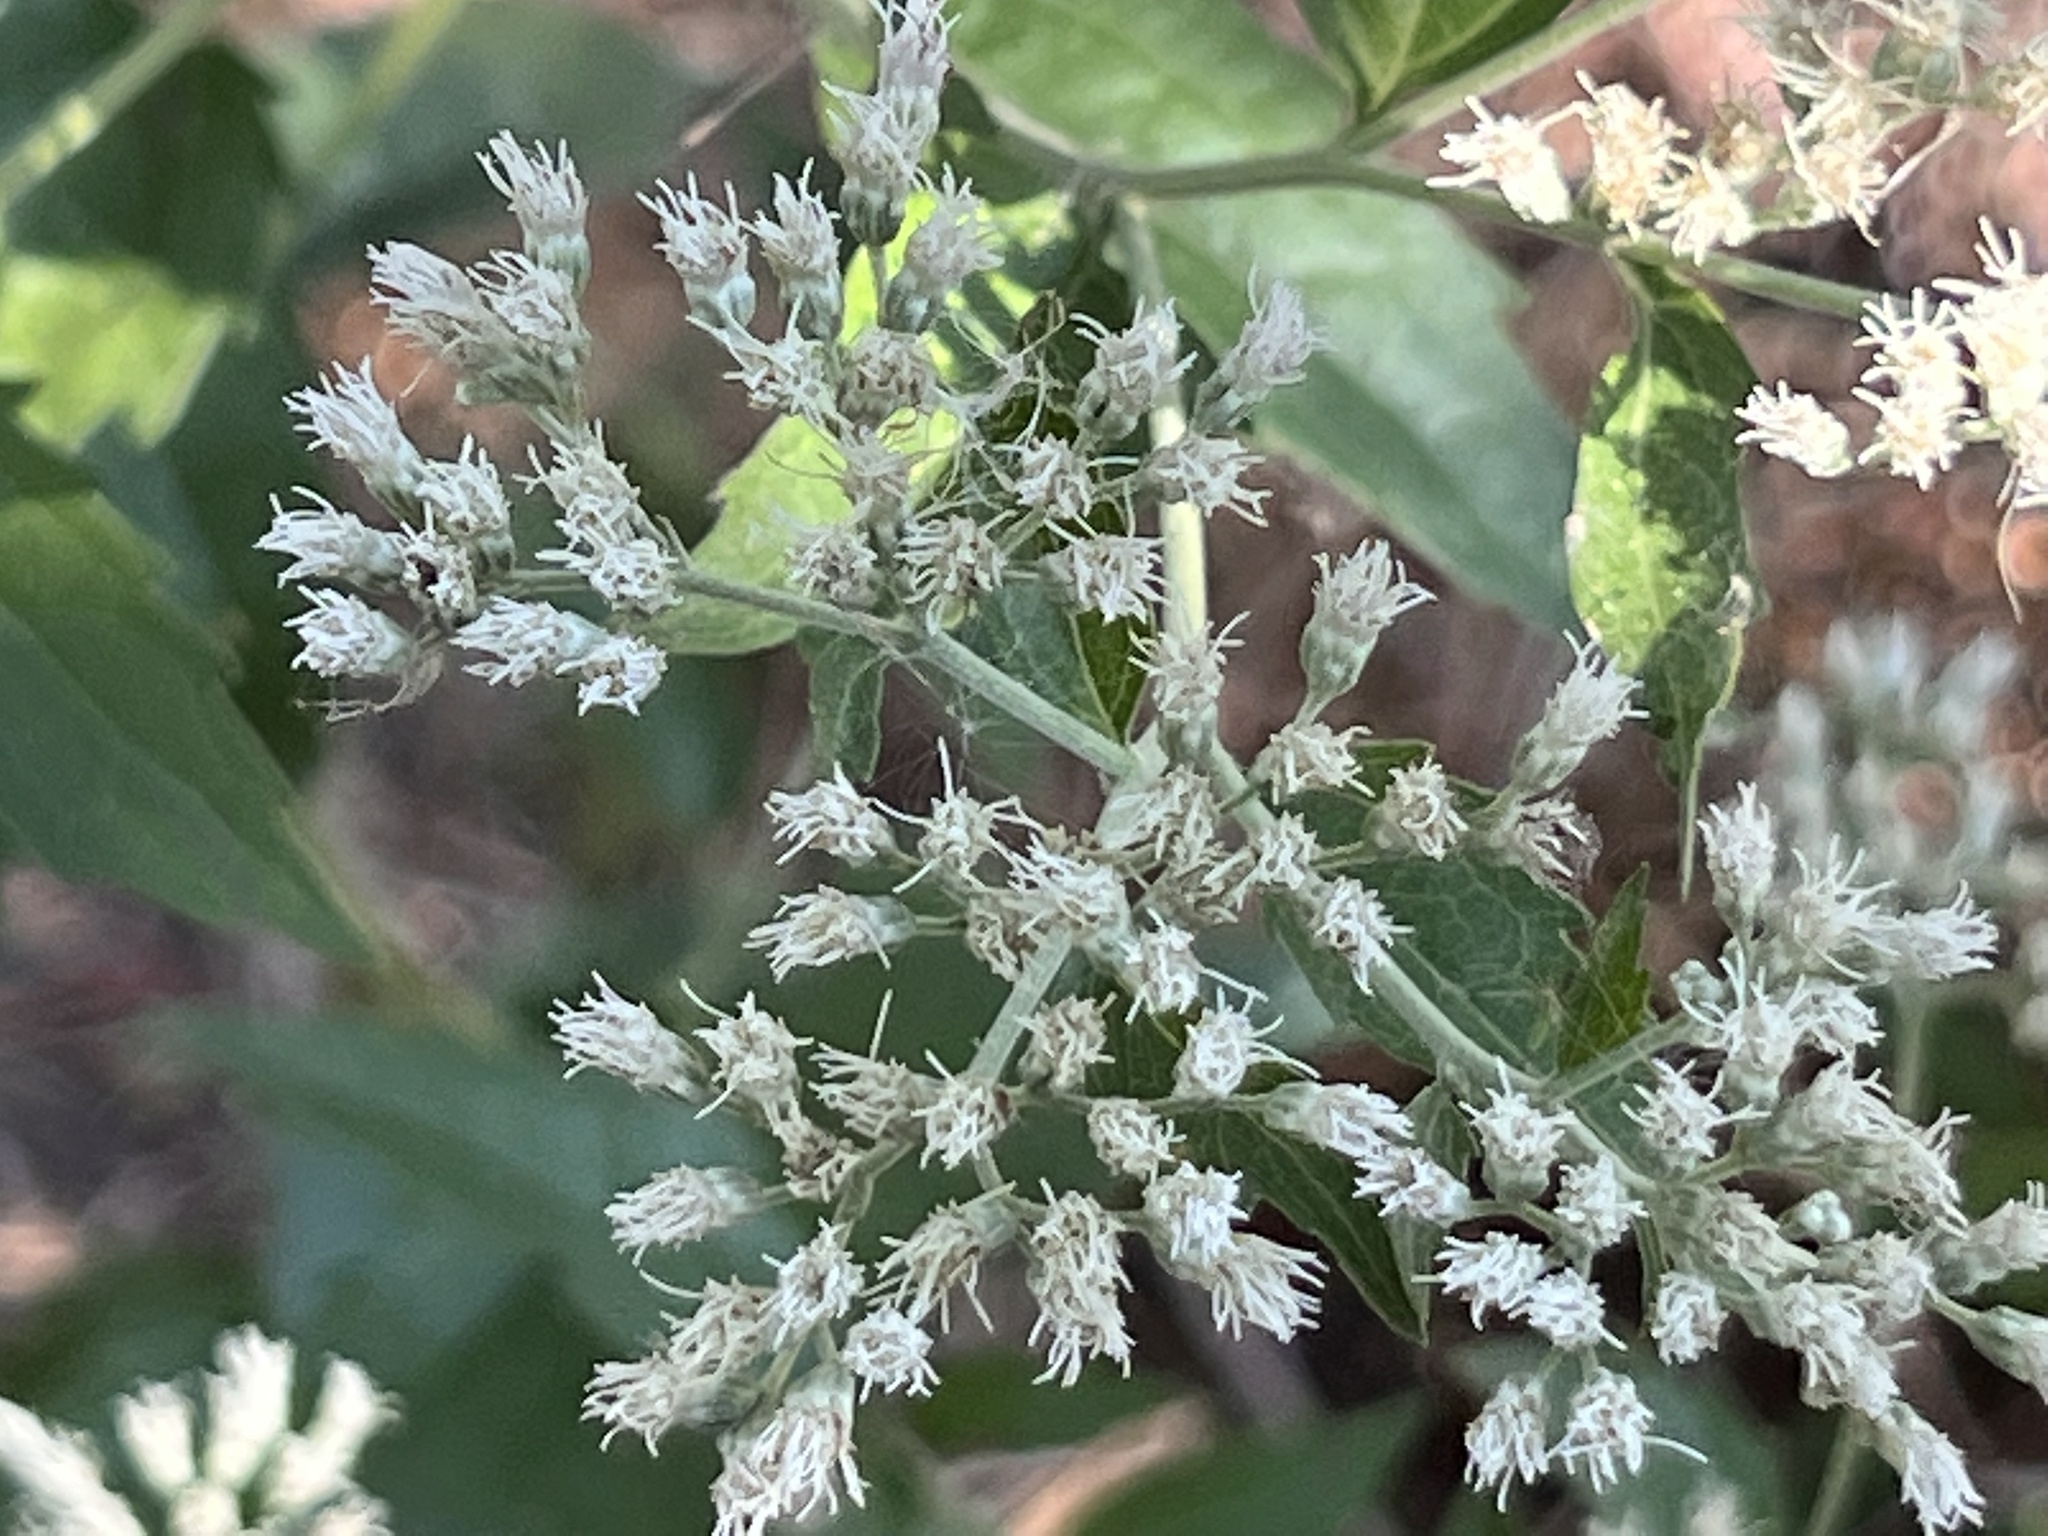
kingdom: Plantae
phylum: Tracheophyta
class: Magnoliopsida
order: Asterales
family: Asteraceae
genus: Eupatorium
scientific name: Eupatorium serotinum
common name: Late boneset
